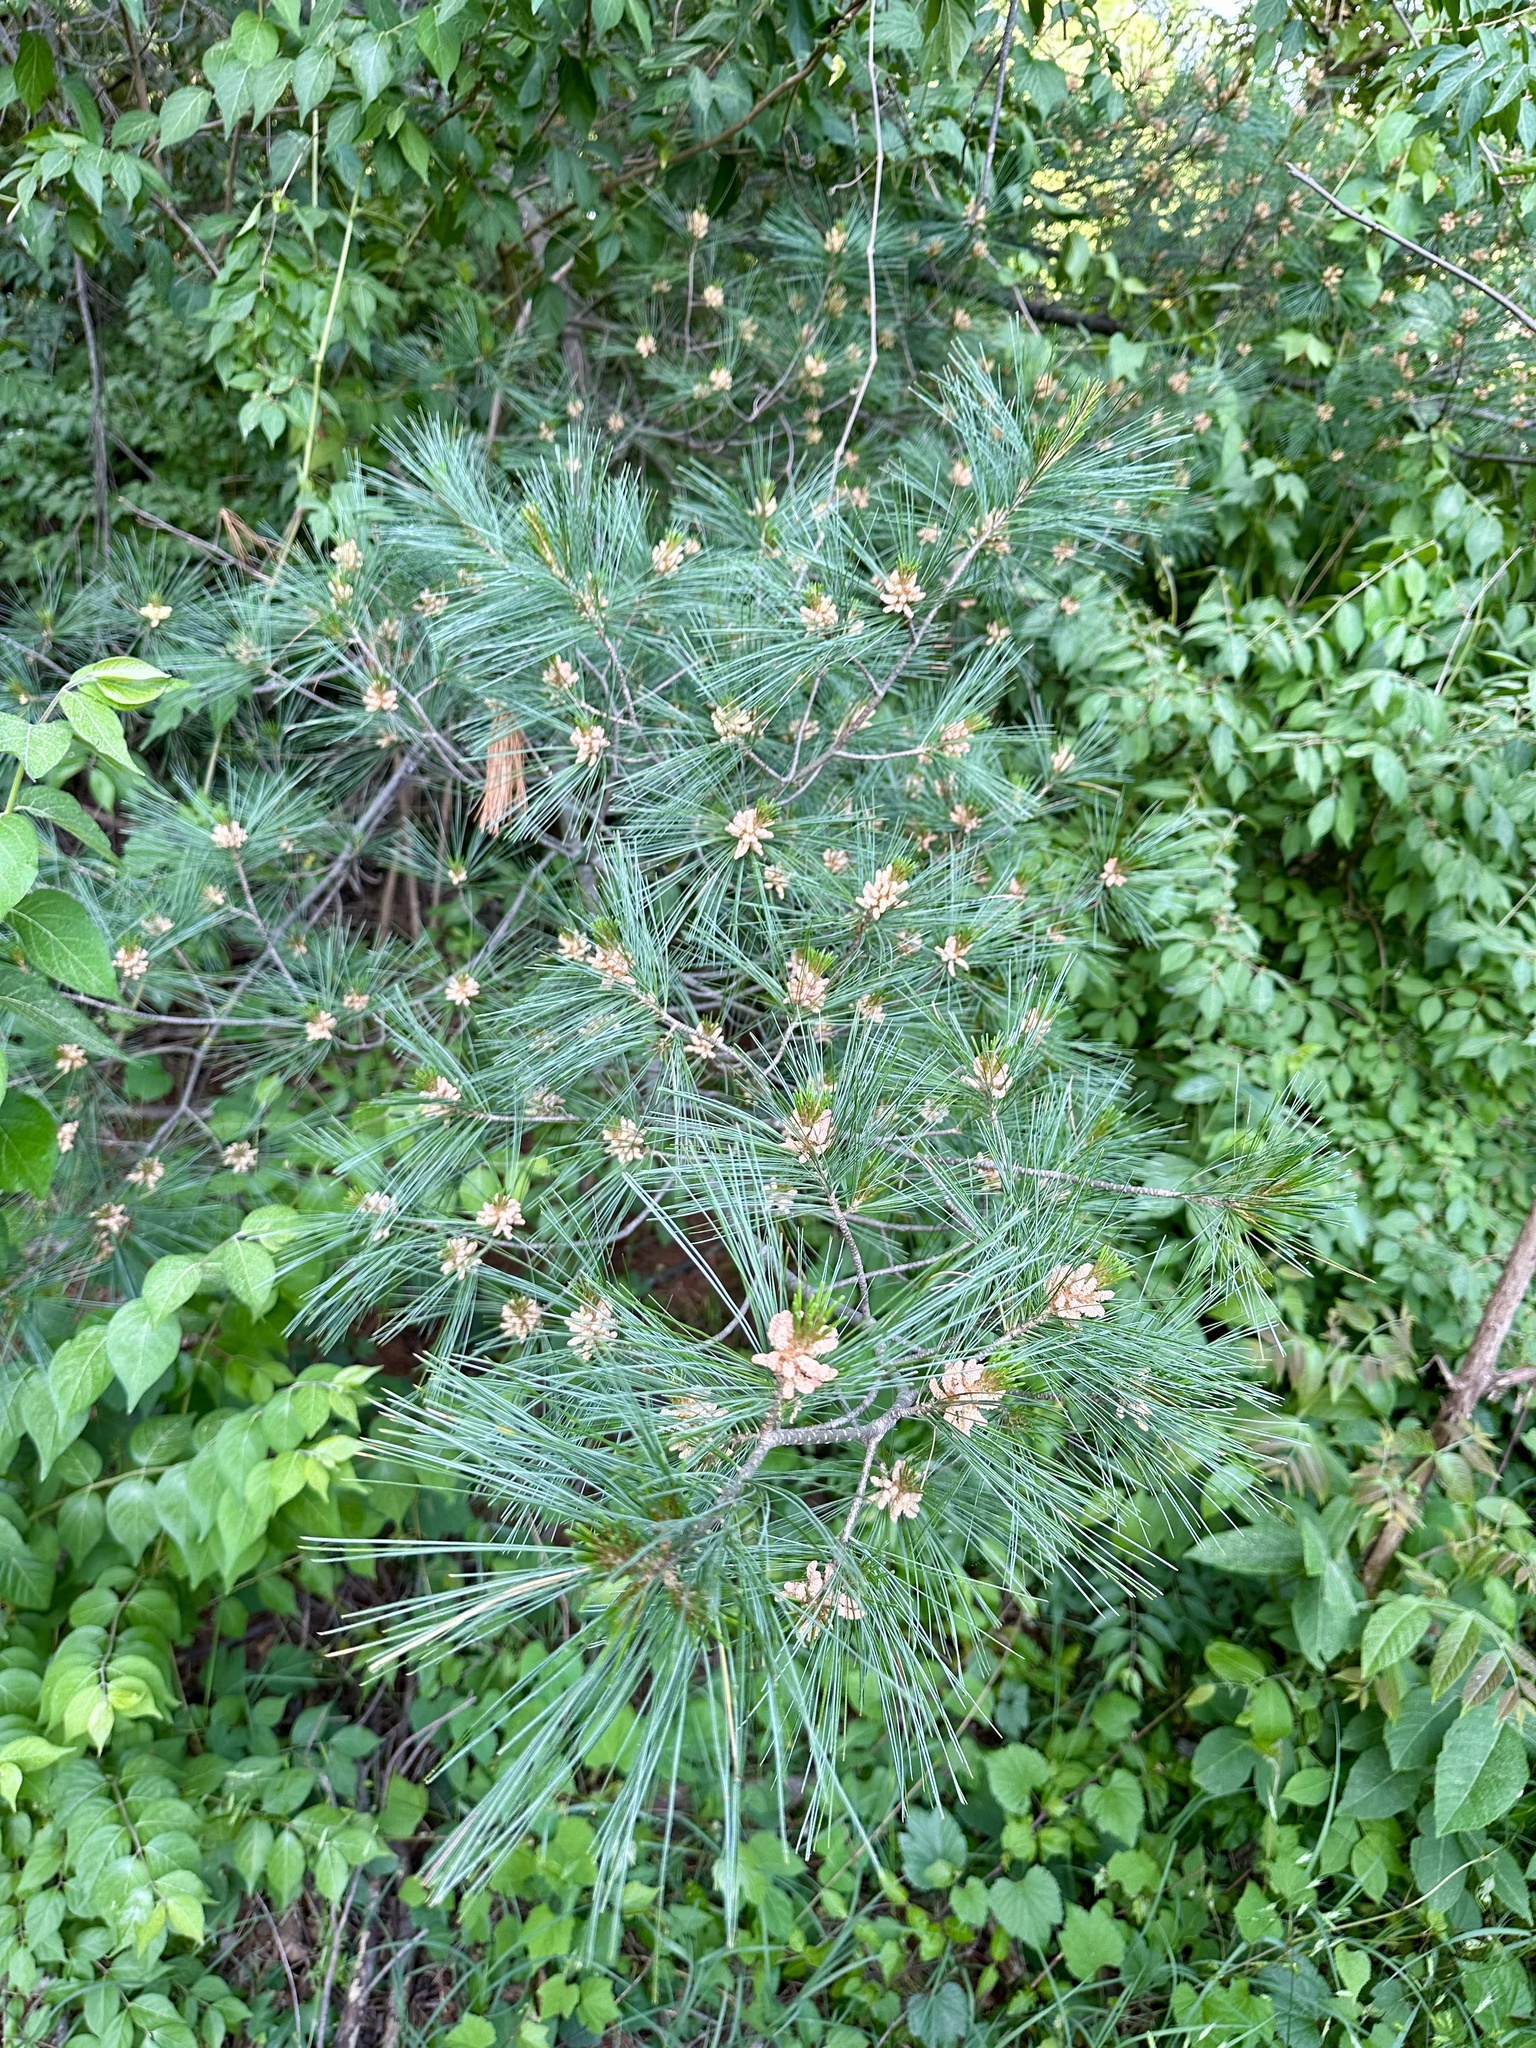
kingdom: Plantae
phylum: Tracheophyta
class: Pinopsida
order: Pinales
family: Pinaceae
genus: Pinus
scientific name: Pinus strobus
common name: Weymouth pine
